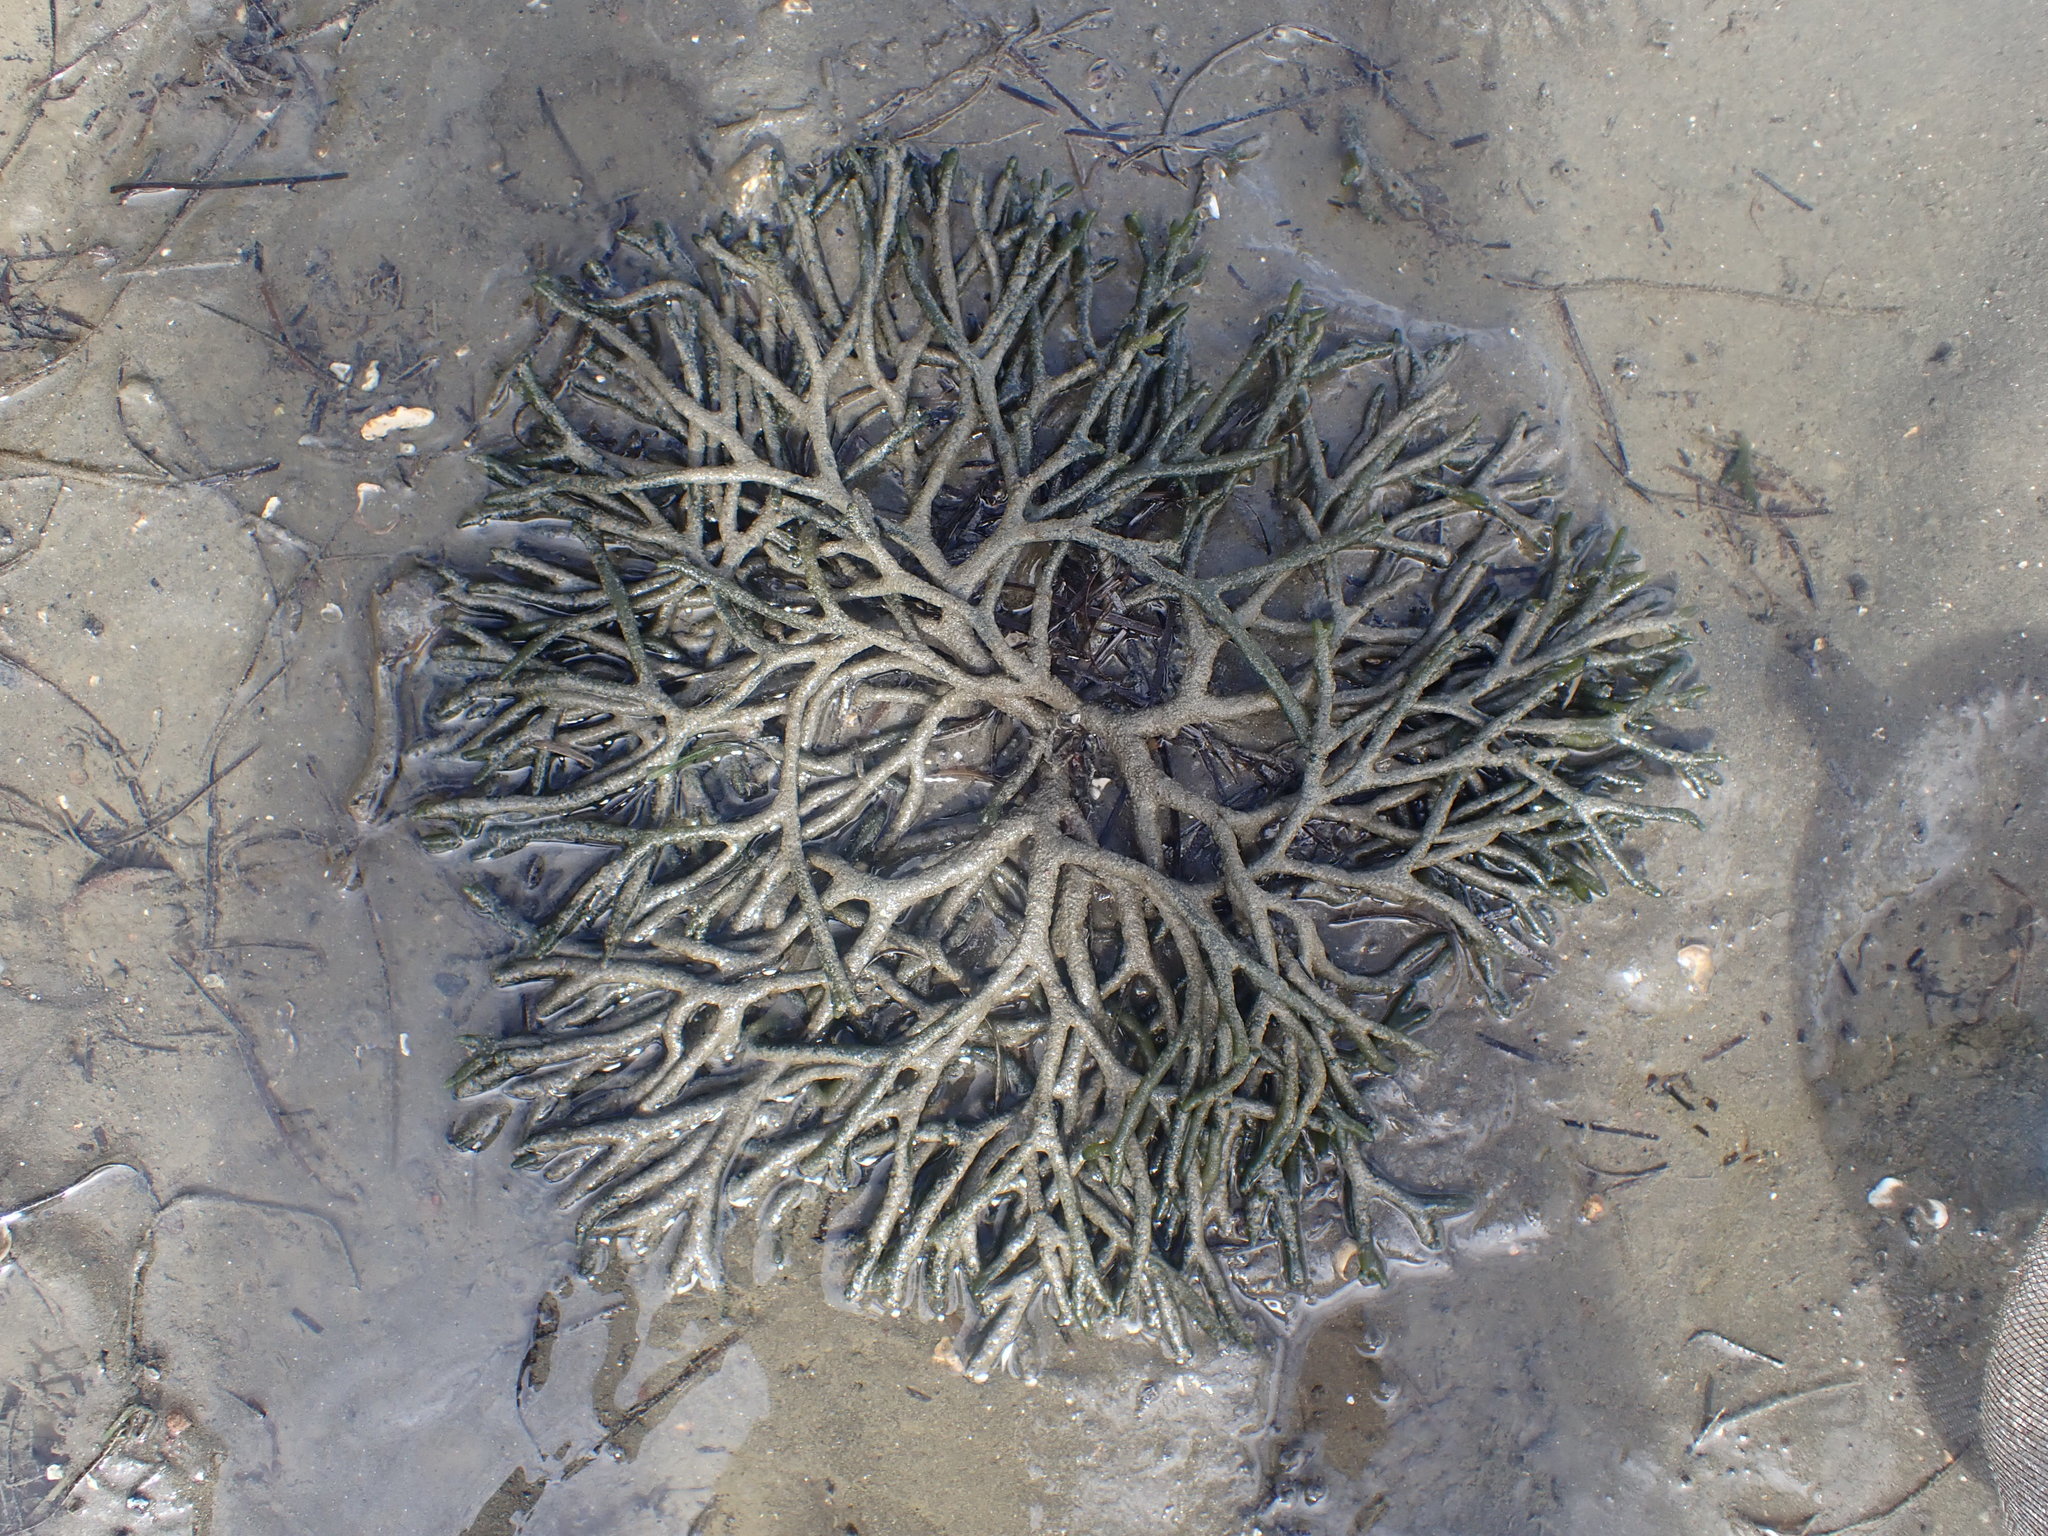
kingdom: Plantae
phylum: Chlorophyta
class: Ulvophyceae
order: Bryopsidales
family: Codiaceae
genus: Codium
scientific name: Codium fragile
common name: Dead man's fingers
